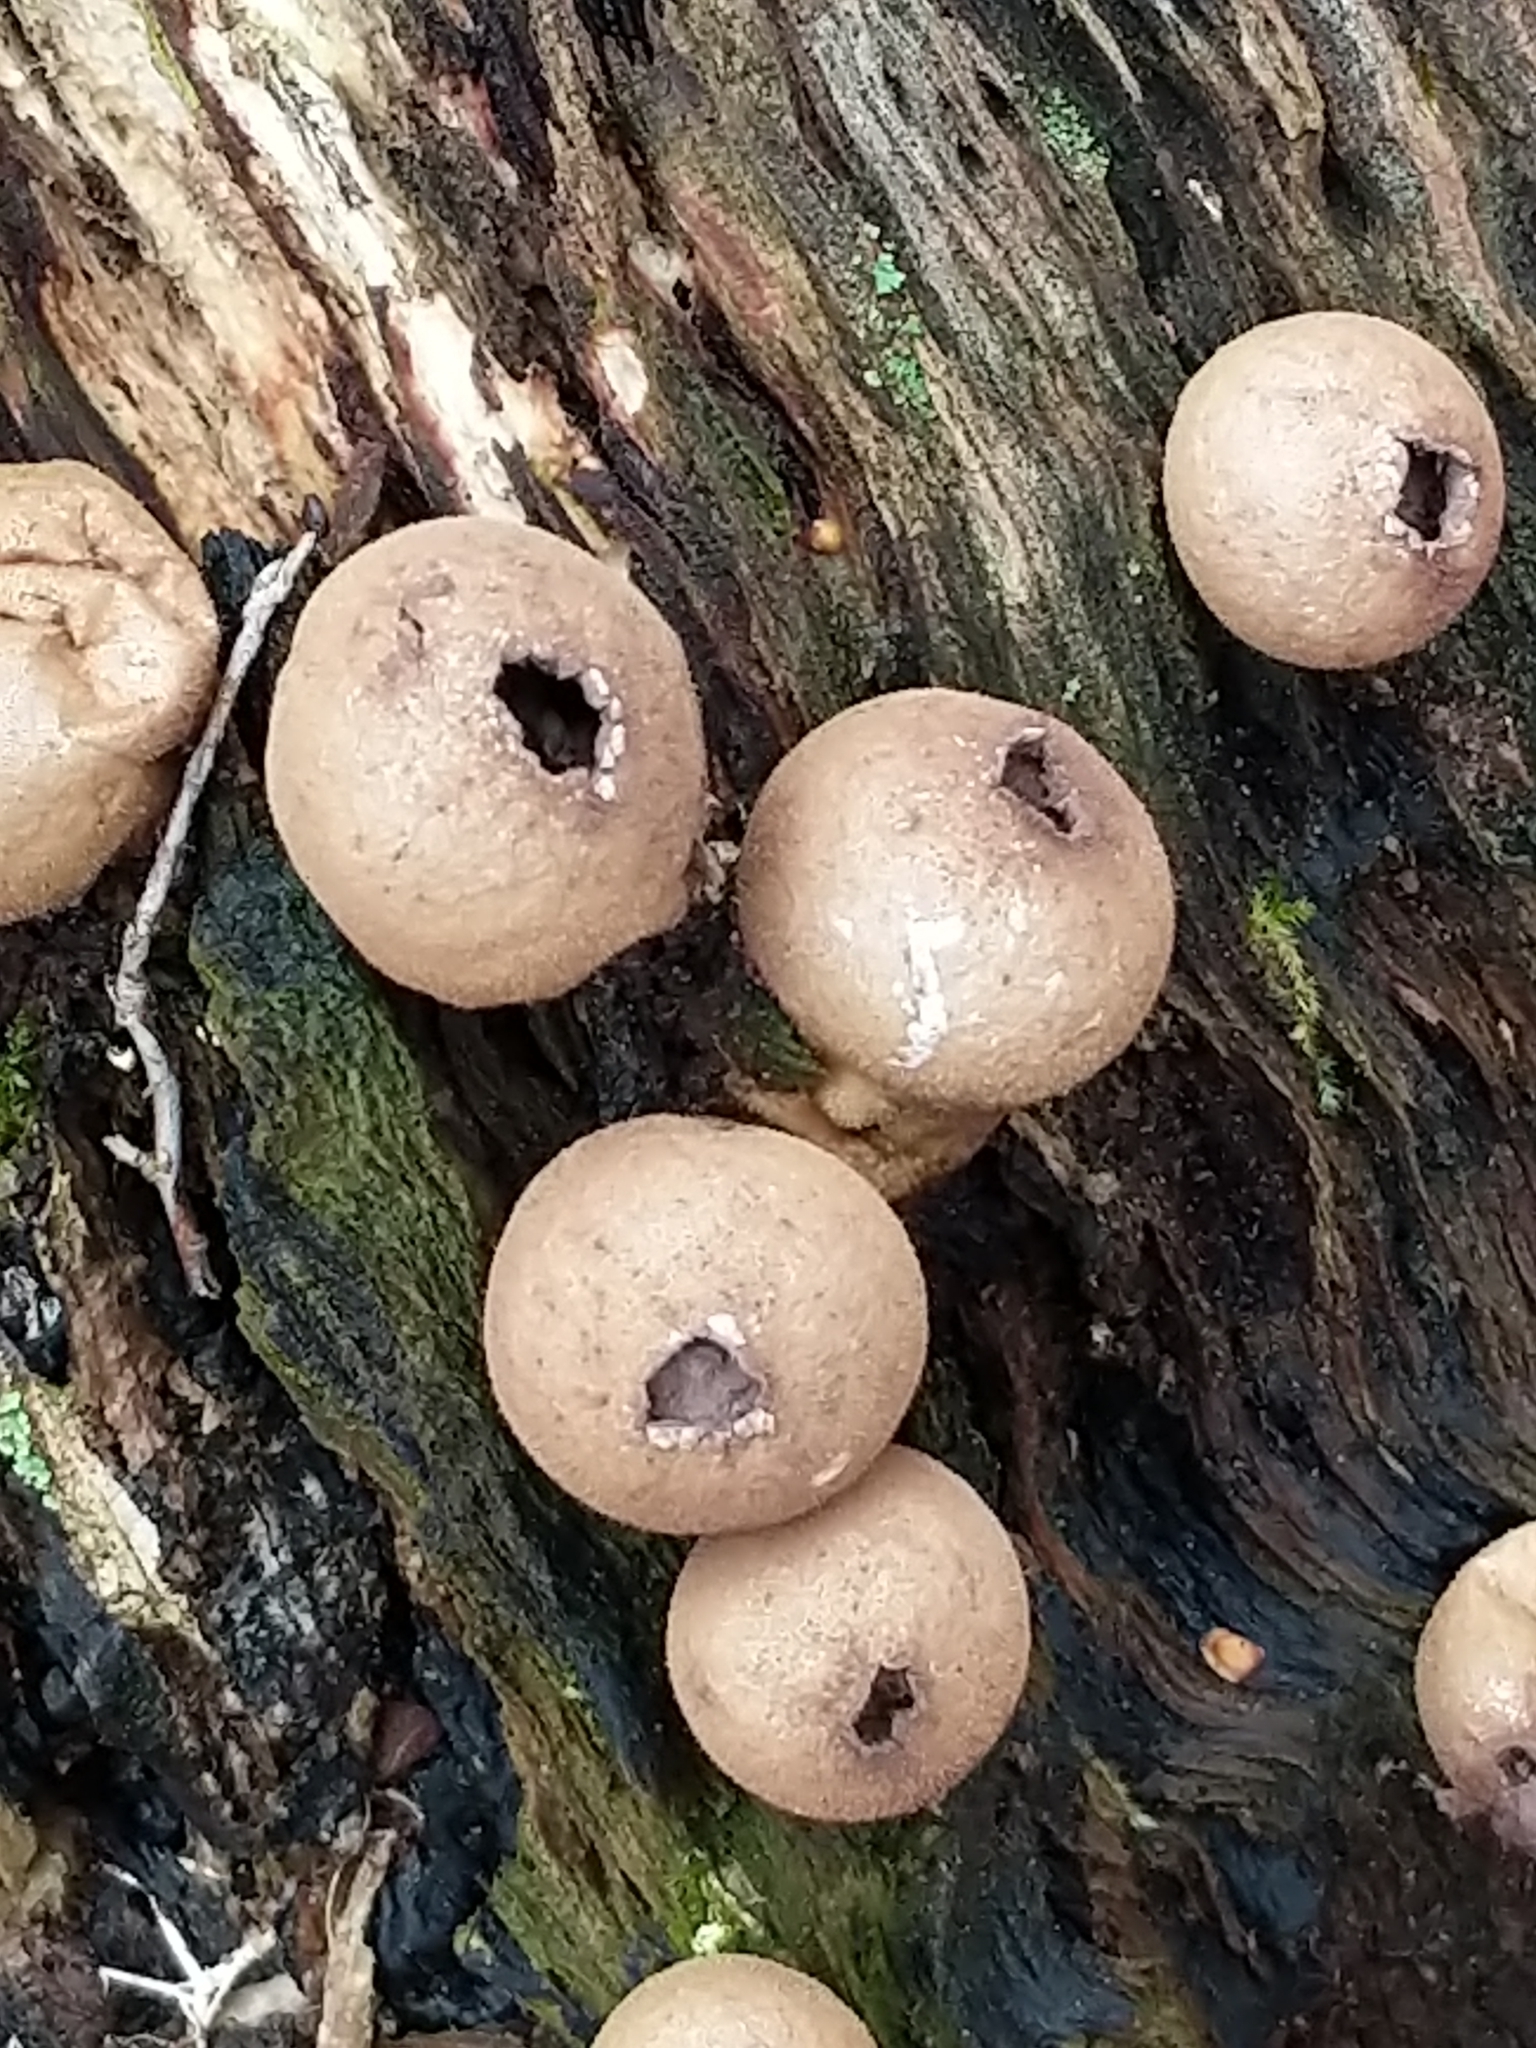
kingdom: Fungi
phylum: Basidiomycota
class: Agaricomycetes
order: Agaricales
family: Lycoperdaceae
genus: Apioperdon
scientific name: Apioperdon pyriforme
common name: Pear-shaped puffball
